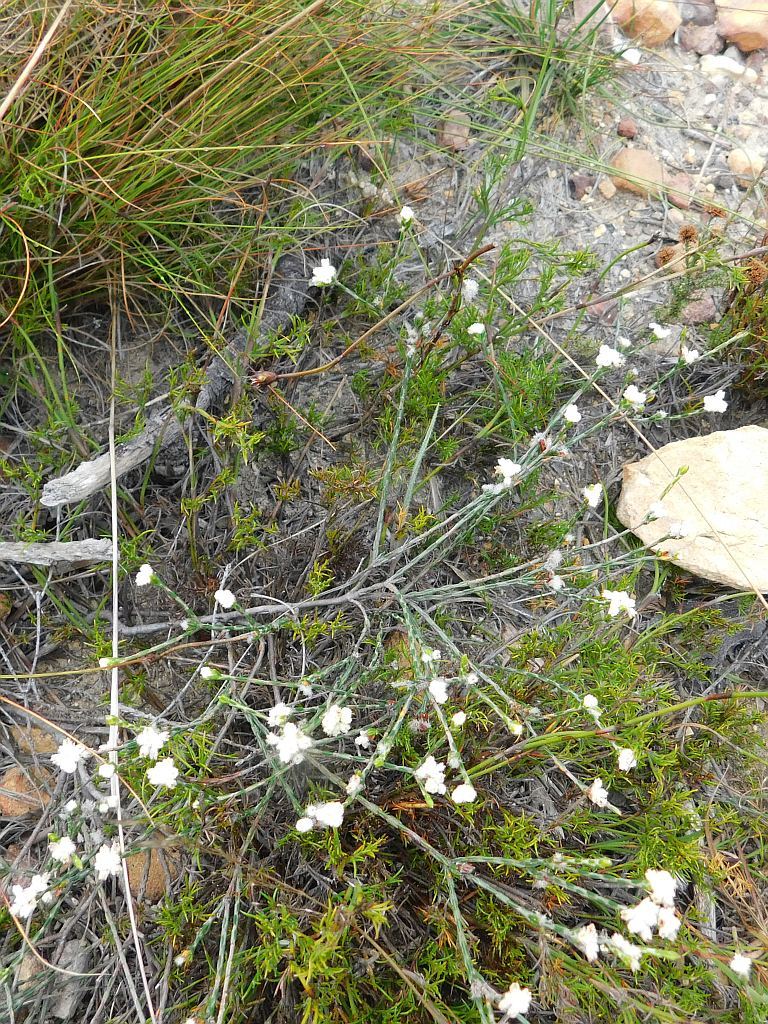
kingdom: Plantae
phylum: Tracheophyta
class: Magnoliopsida
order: Malvales
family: Thymelaeaceae
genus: Lachnaea
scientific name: Lachnaea greytonensis
